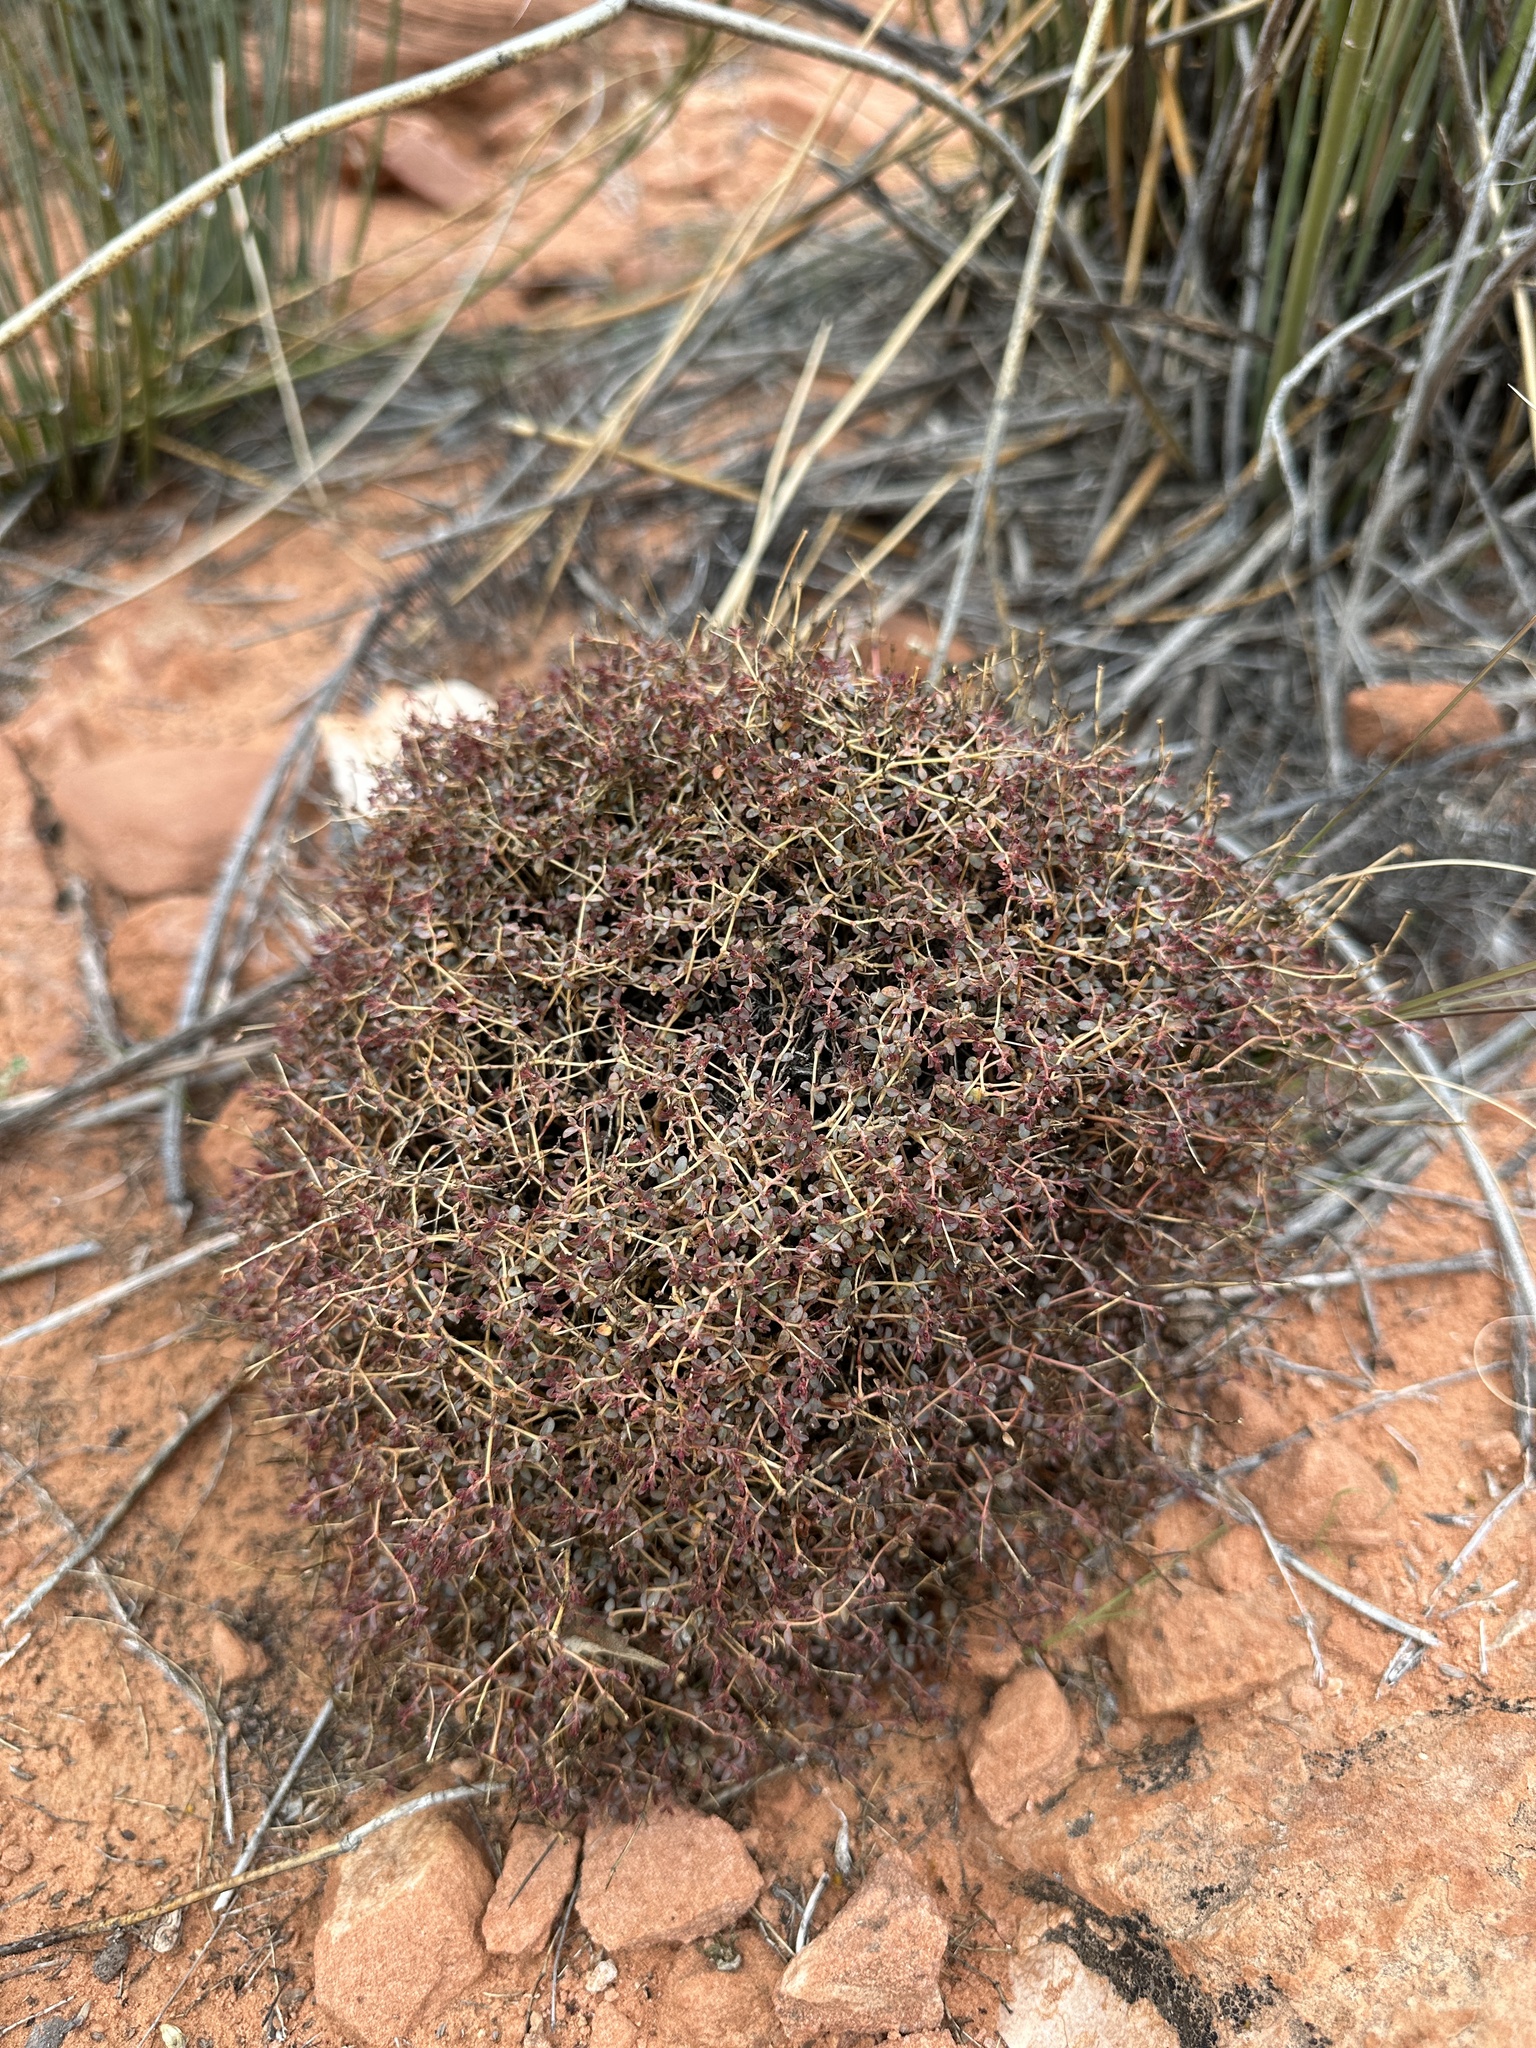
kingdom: Plantae
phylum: Tracheophyta
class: Magnoliopsida
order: Malpighiales
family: Euphorbiaceae
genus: Euphorbia
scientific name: Euphorbia polycarpa
